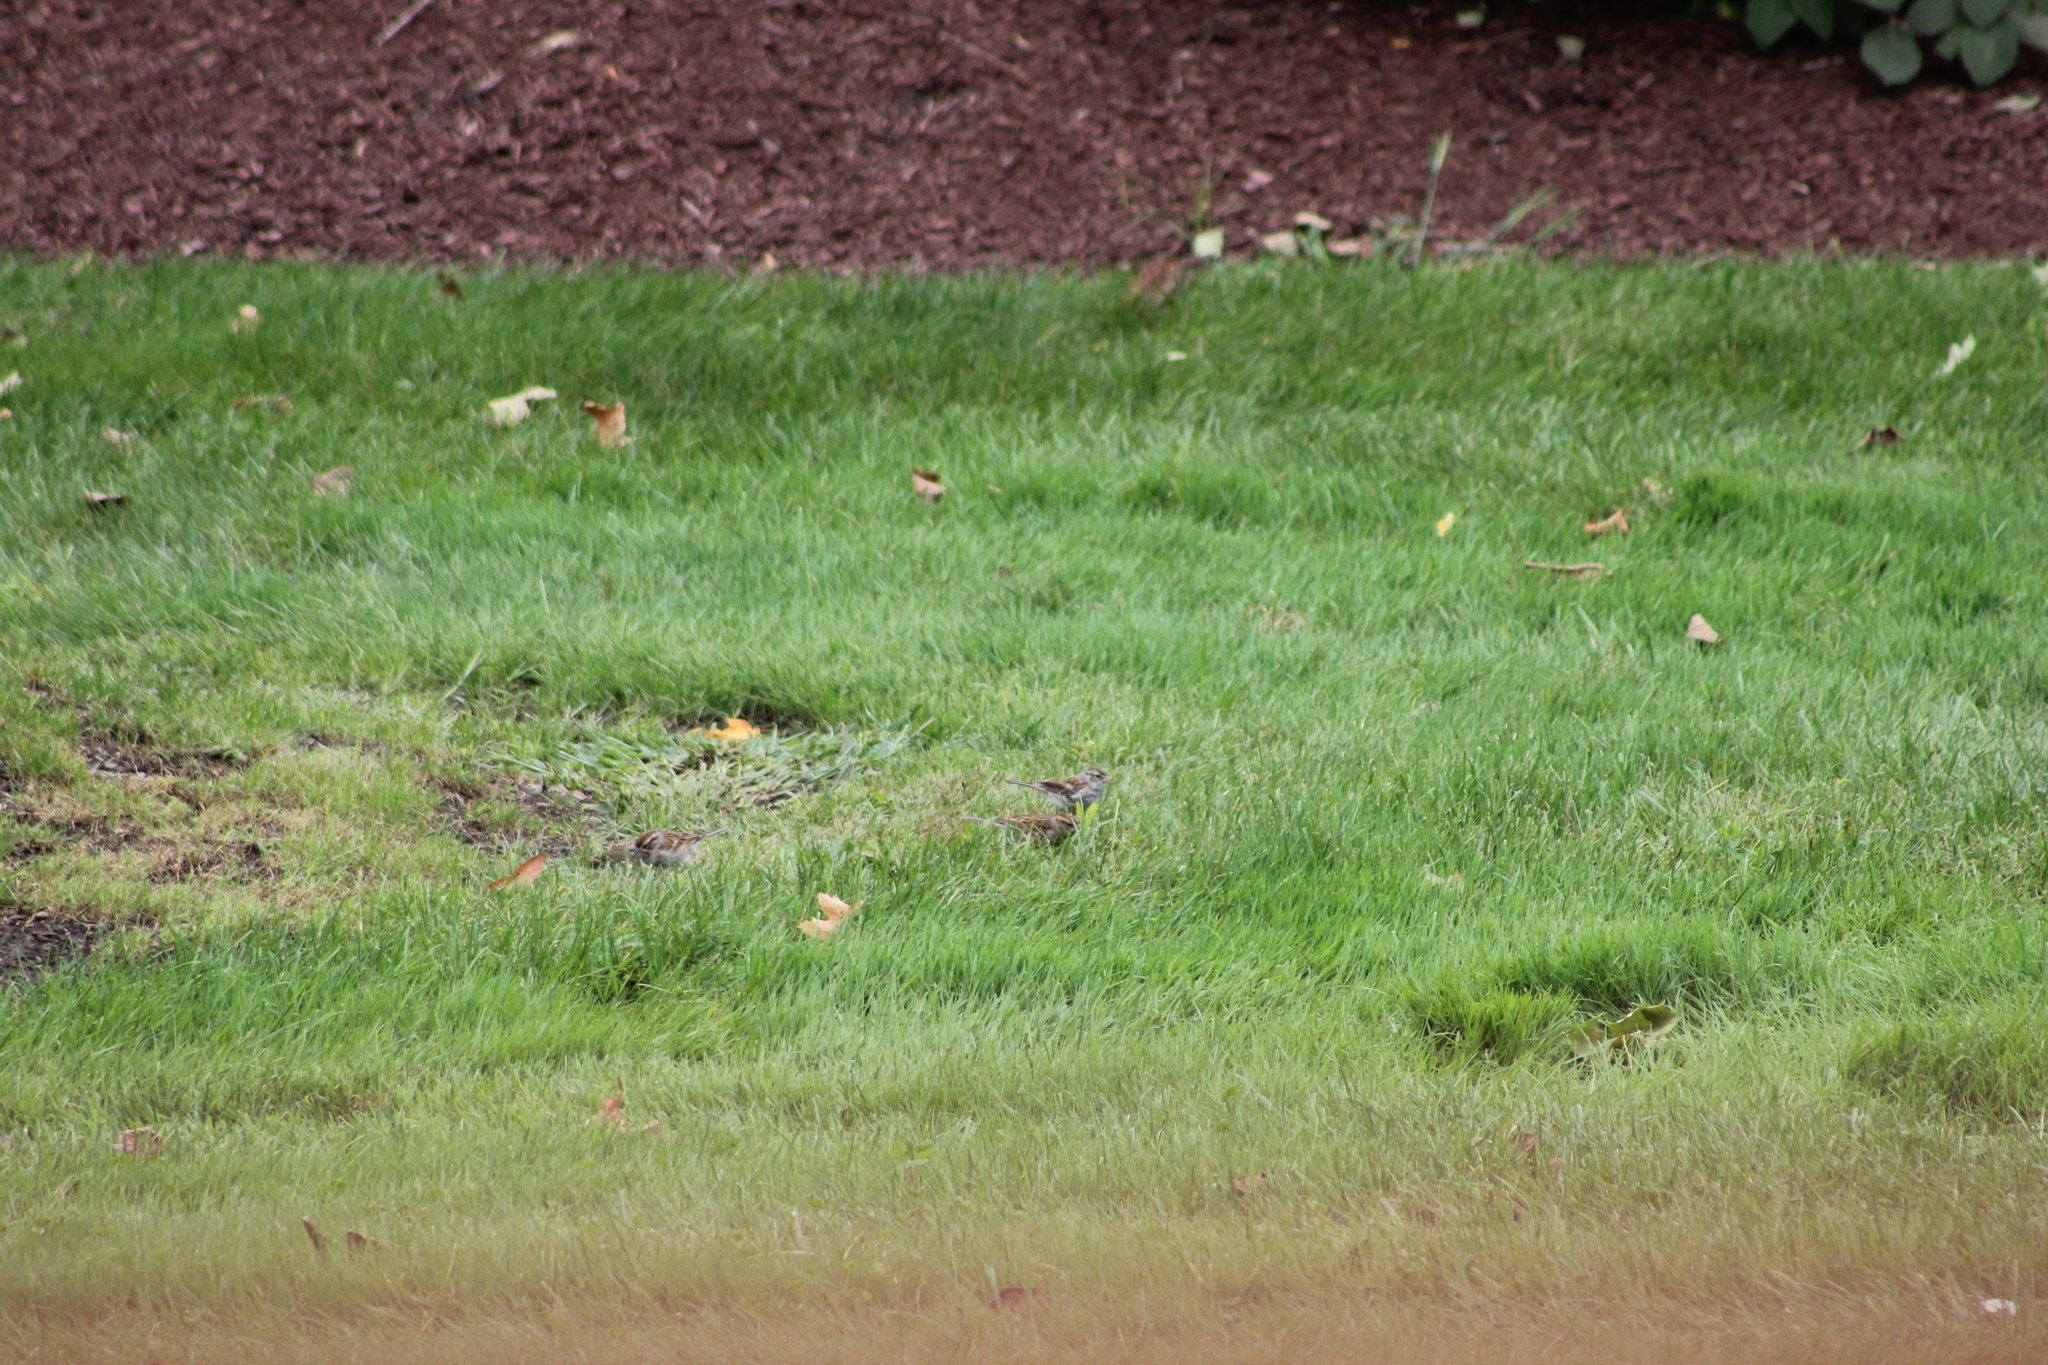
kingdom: Animalia
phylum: Chordata
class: Aves
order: Passeriformes
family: Passerellidae
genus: Spizella
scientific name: Spizella passerina
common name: Chipping sparrow
